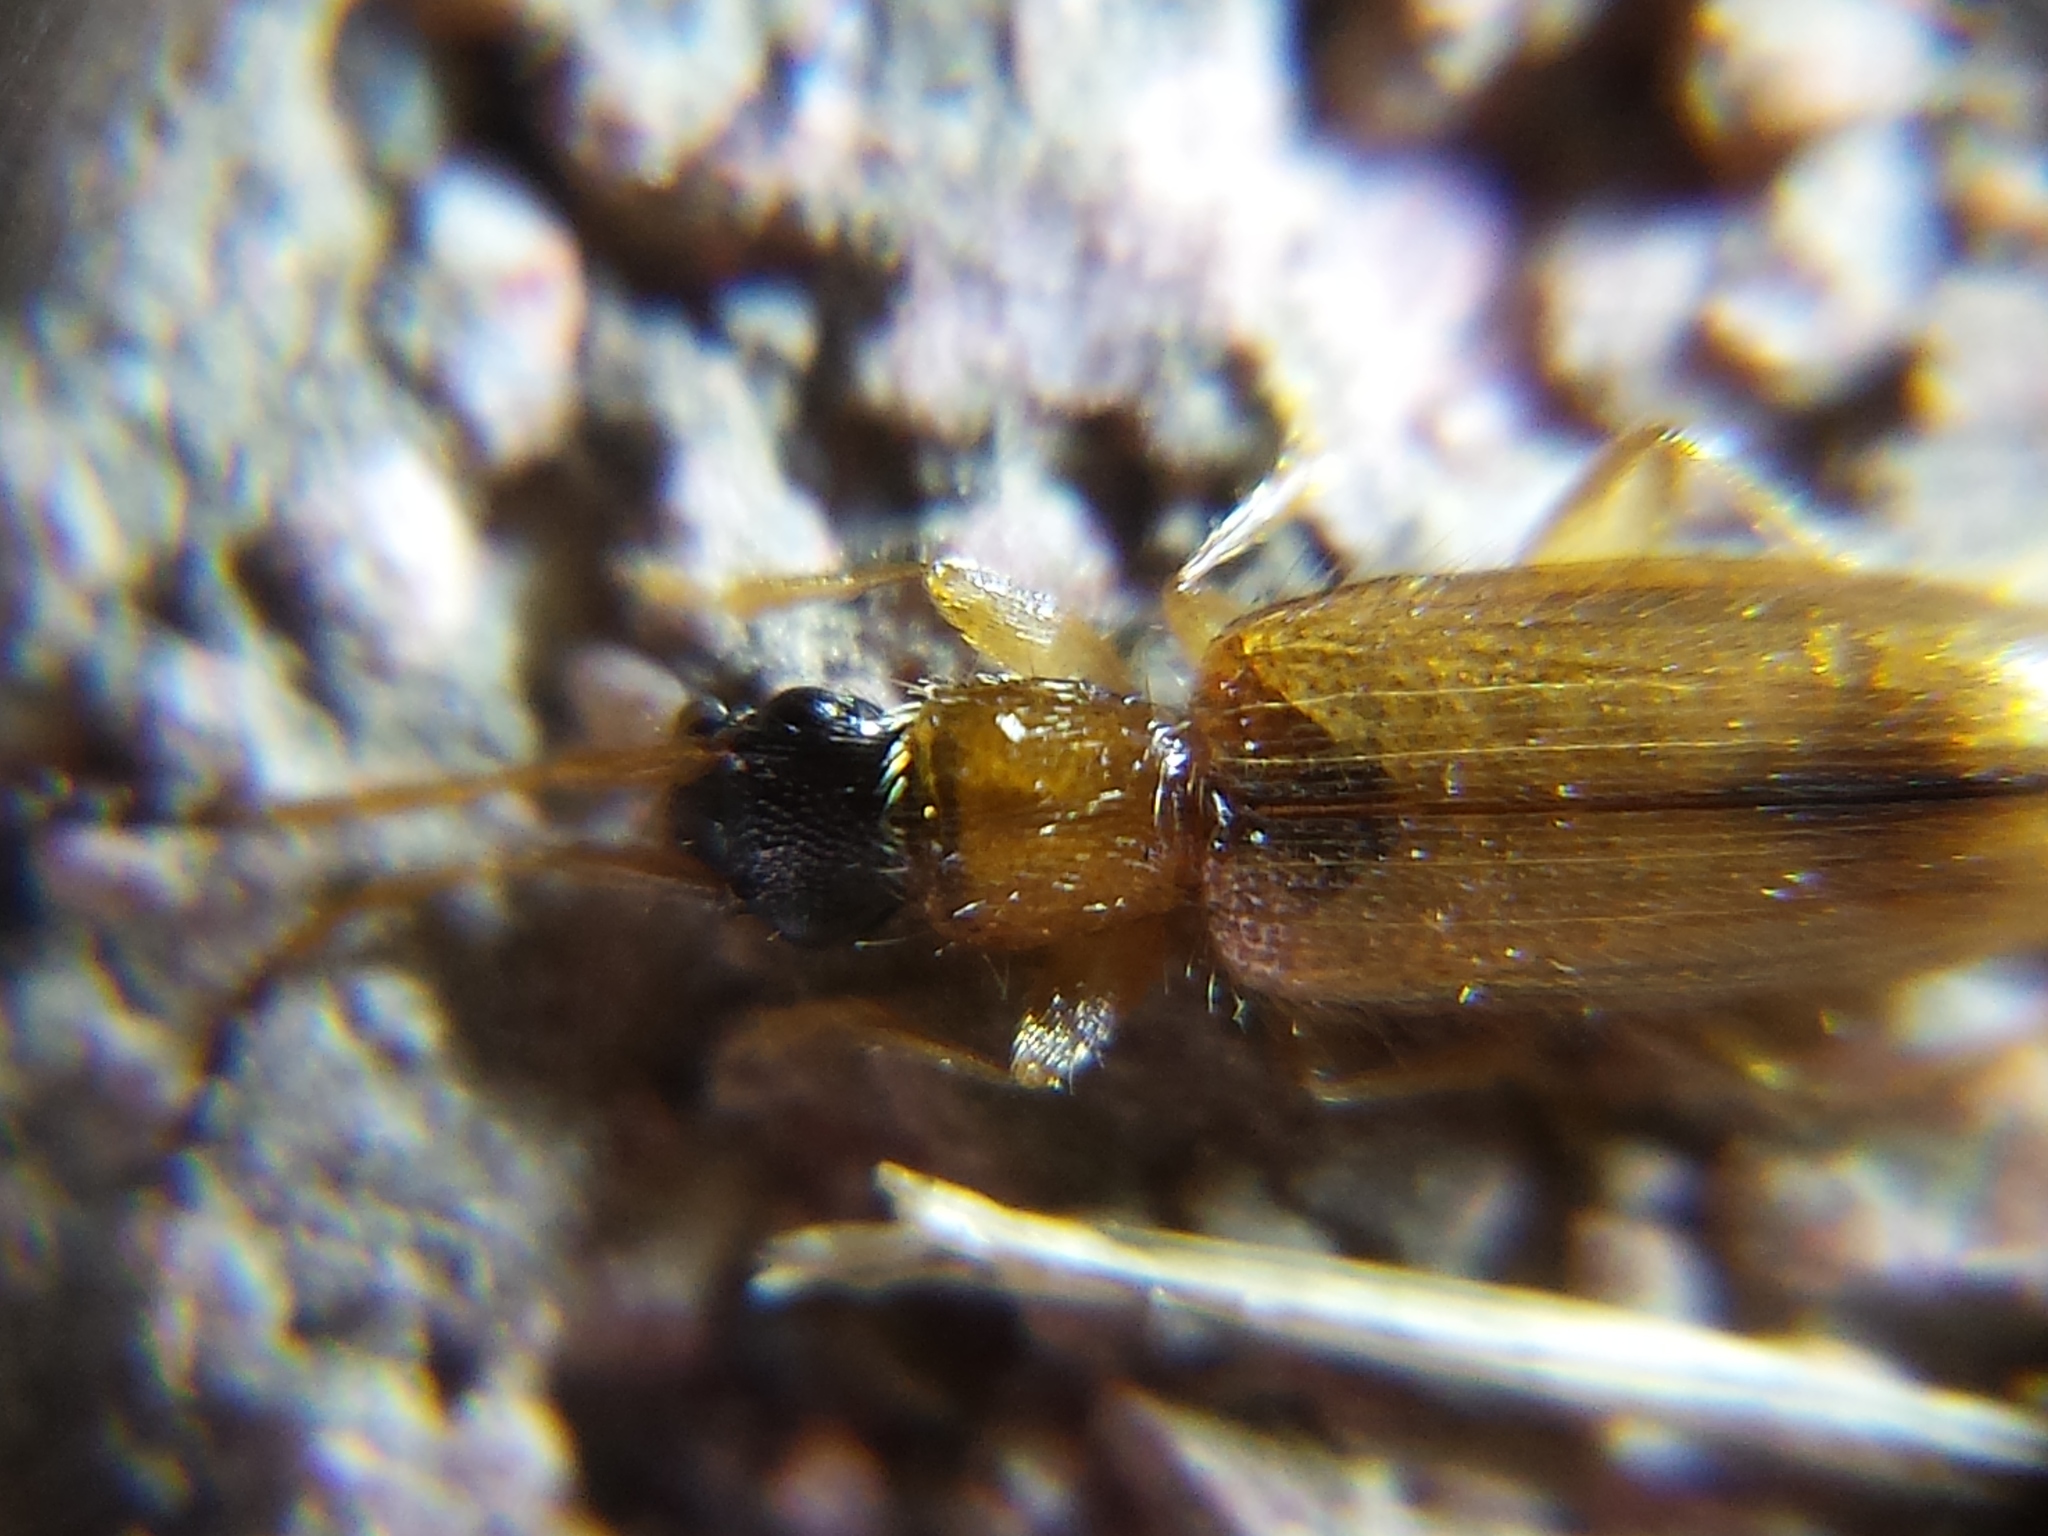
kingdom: Animalia
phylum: Arthropoda
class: Insecta
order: Coleoptera
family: Silvanidae
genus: Telephanus
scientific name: Telephanus velox
